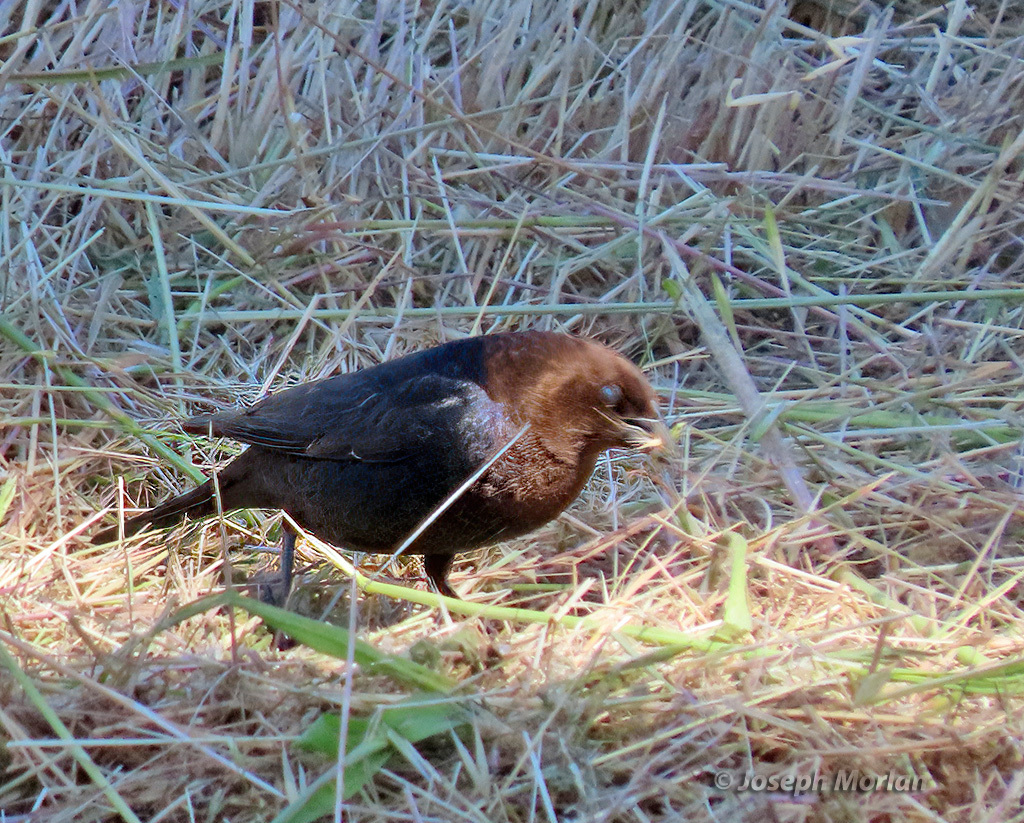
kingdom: Animalia
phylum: Chordata
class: Aves
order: Passeriformes
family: Icteridae
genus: Molothrus
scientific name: Molothrus ater
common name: Brown-headed cowbird
